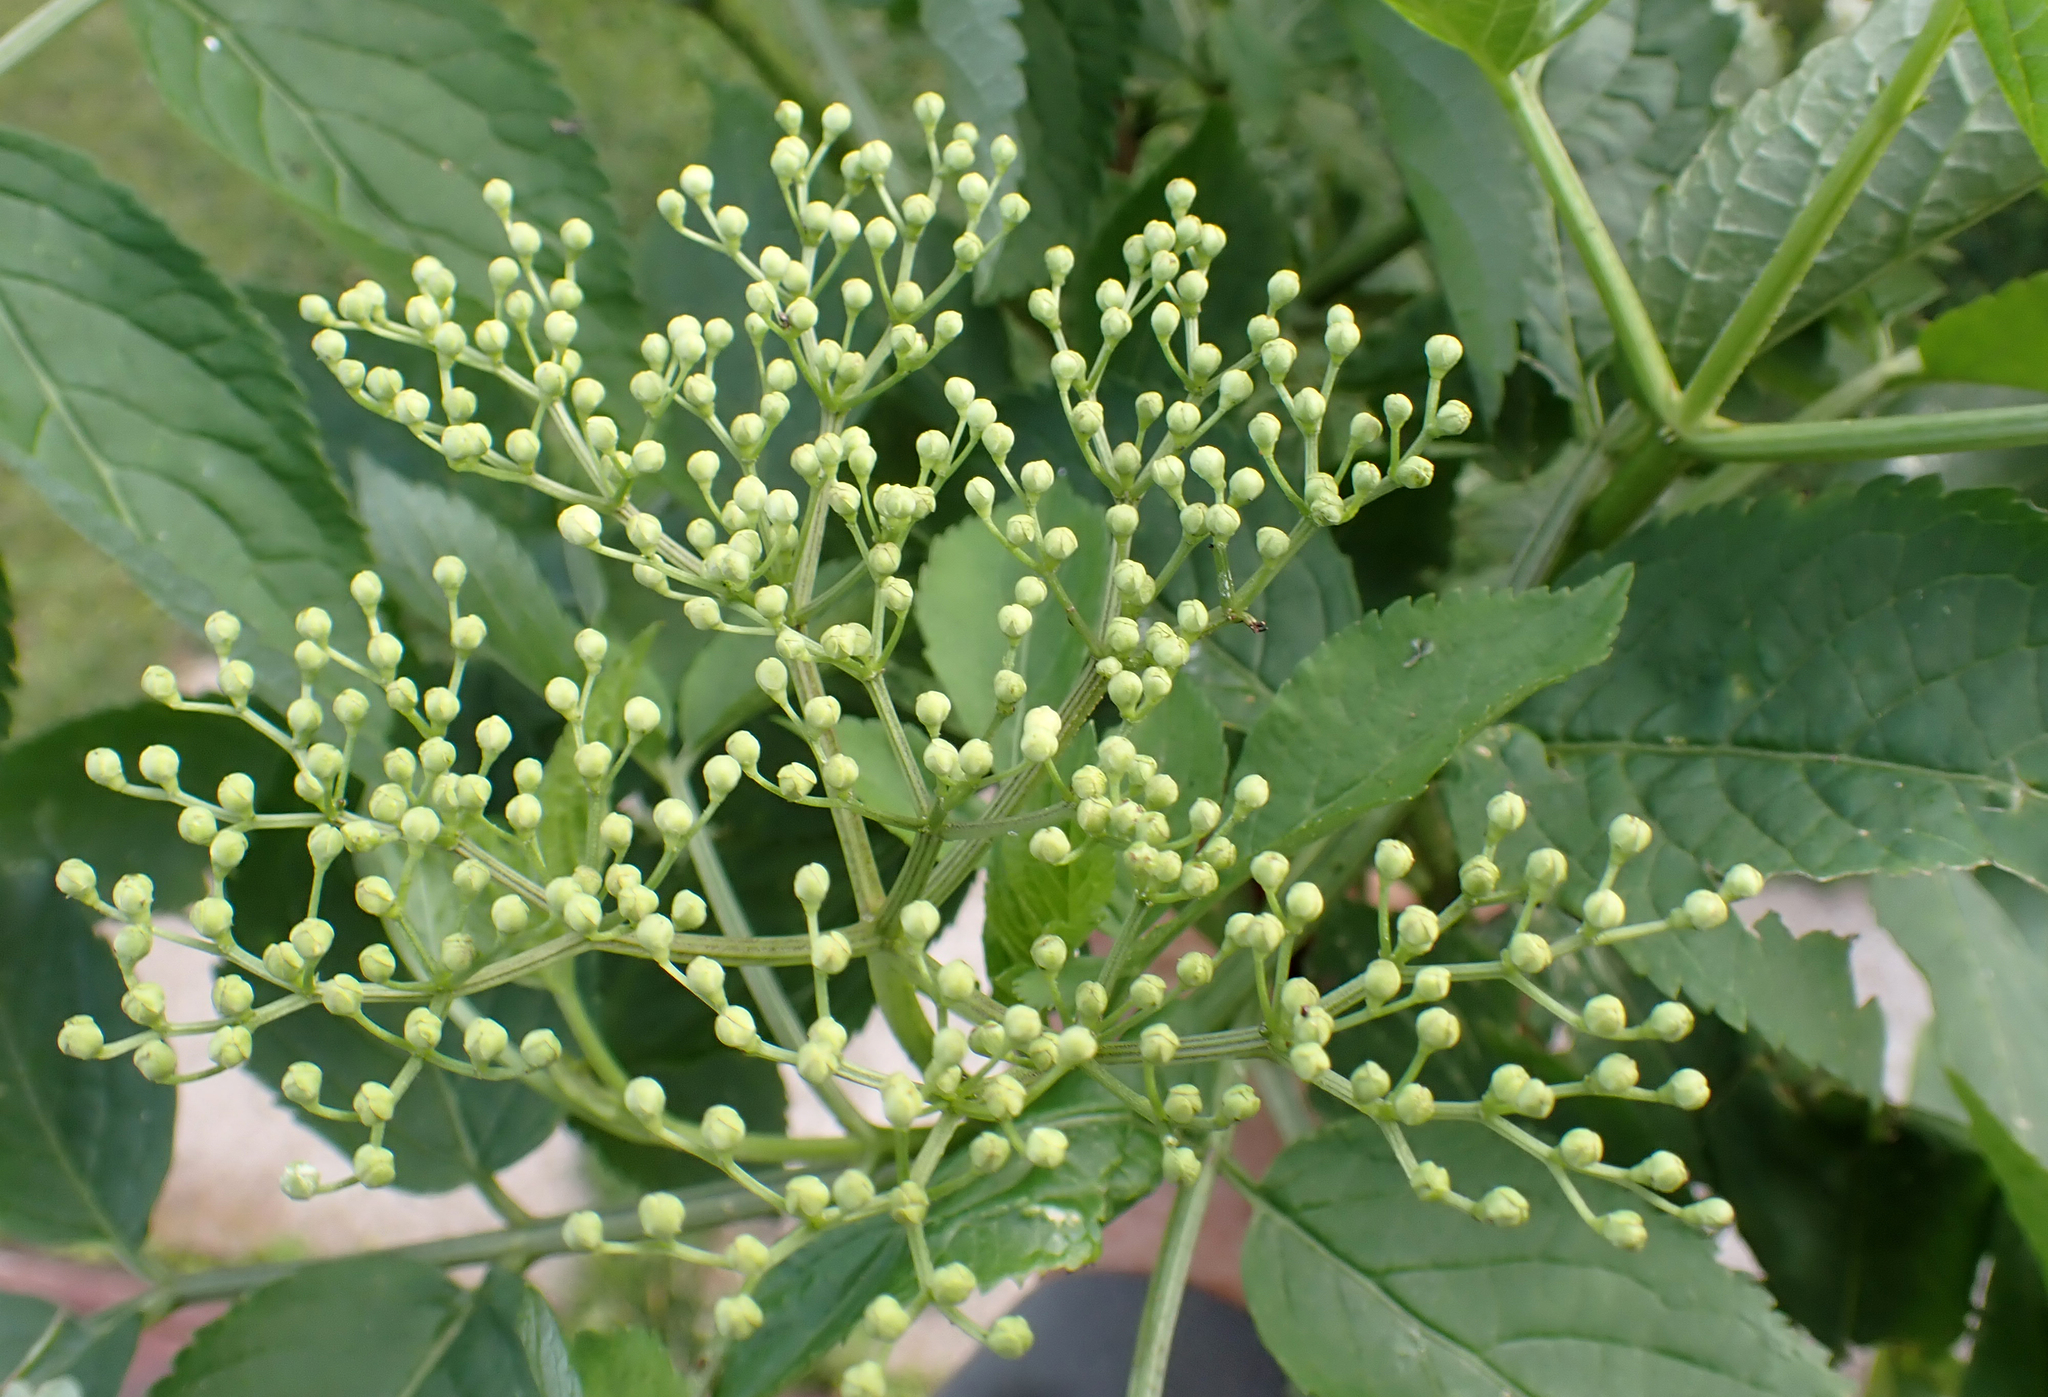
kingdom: Plantae
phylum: Tracheophyta
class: Magnoliopsida
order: Dipsacales
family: Viburnaceae
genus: Sambucus
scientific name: Sambucus nigra
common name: Elder
